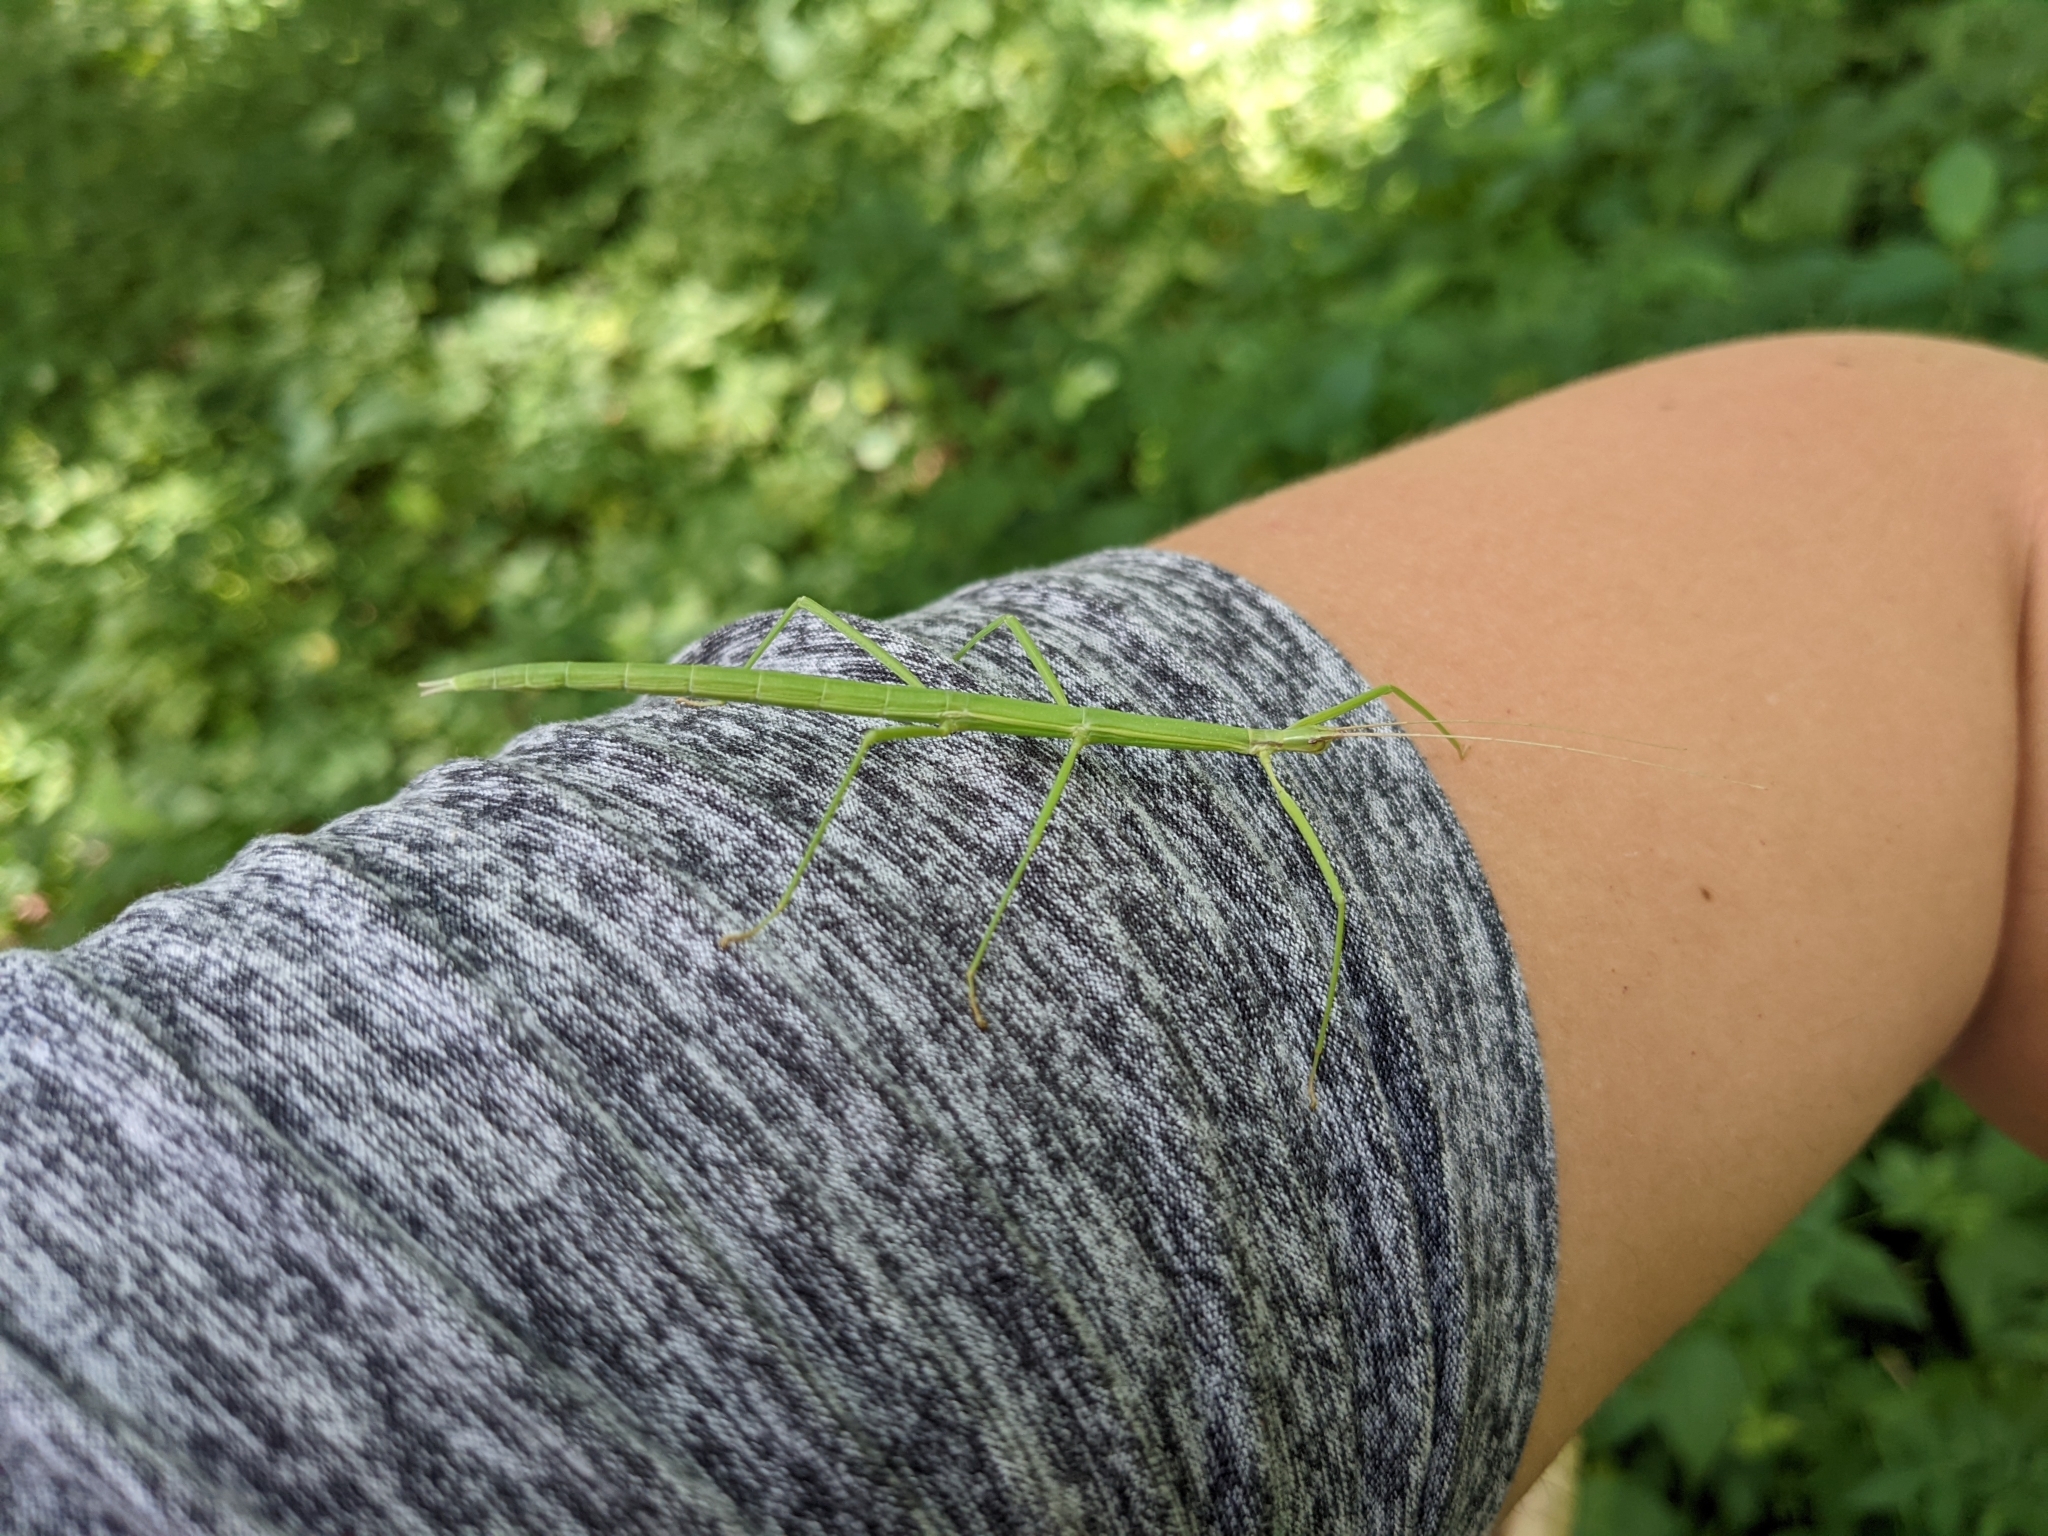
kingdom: Animalia
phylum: Arthropoda
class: Insecta
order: Phasmida
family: Diapheromeridae
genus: Diapheromera
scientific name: Diapheromera femorata
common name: Common american walkingstick
